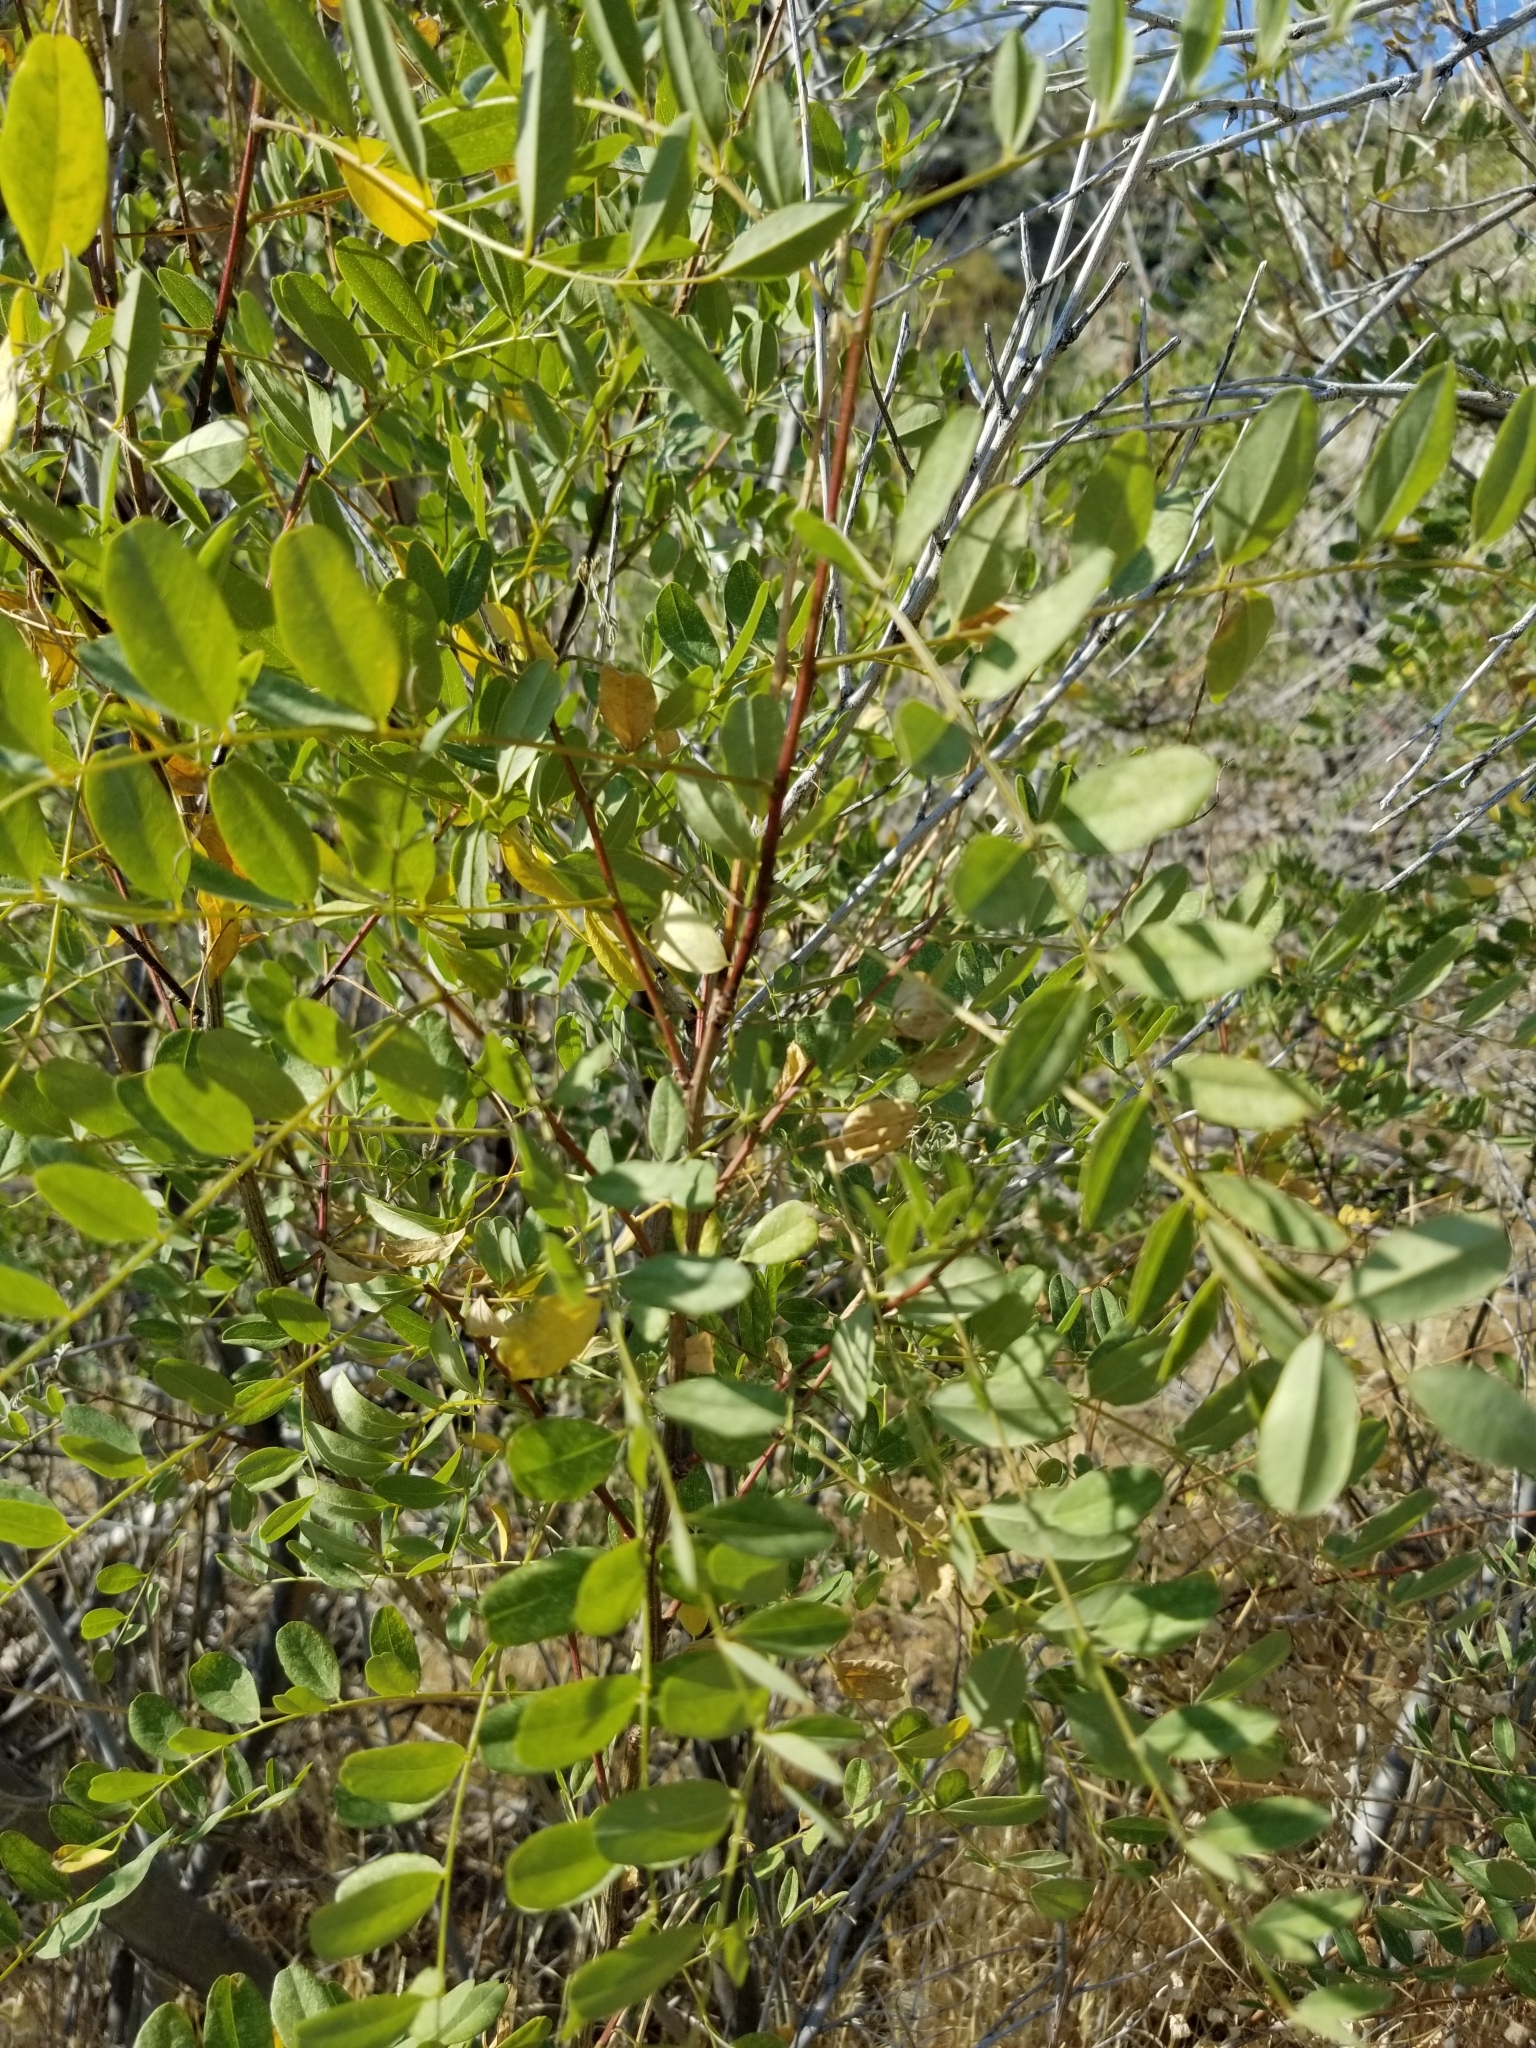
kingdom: Plantae
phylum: Tracheophyta
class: Magnoliopsida
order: Fabales
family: Fabaceae
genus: Amorpha
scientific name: Amorpha fruticosa
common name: False indigo
